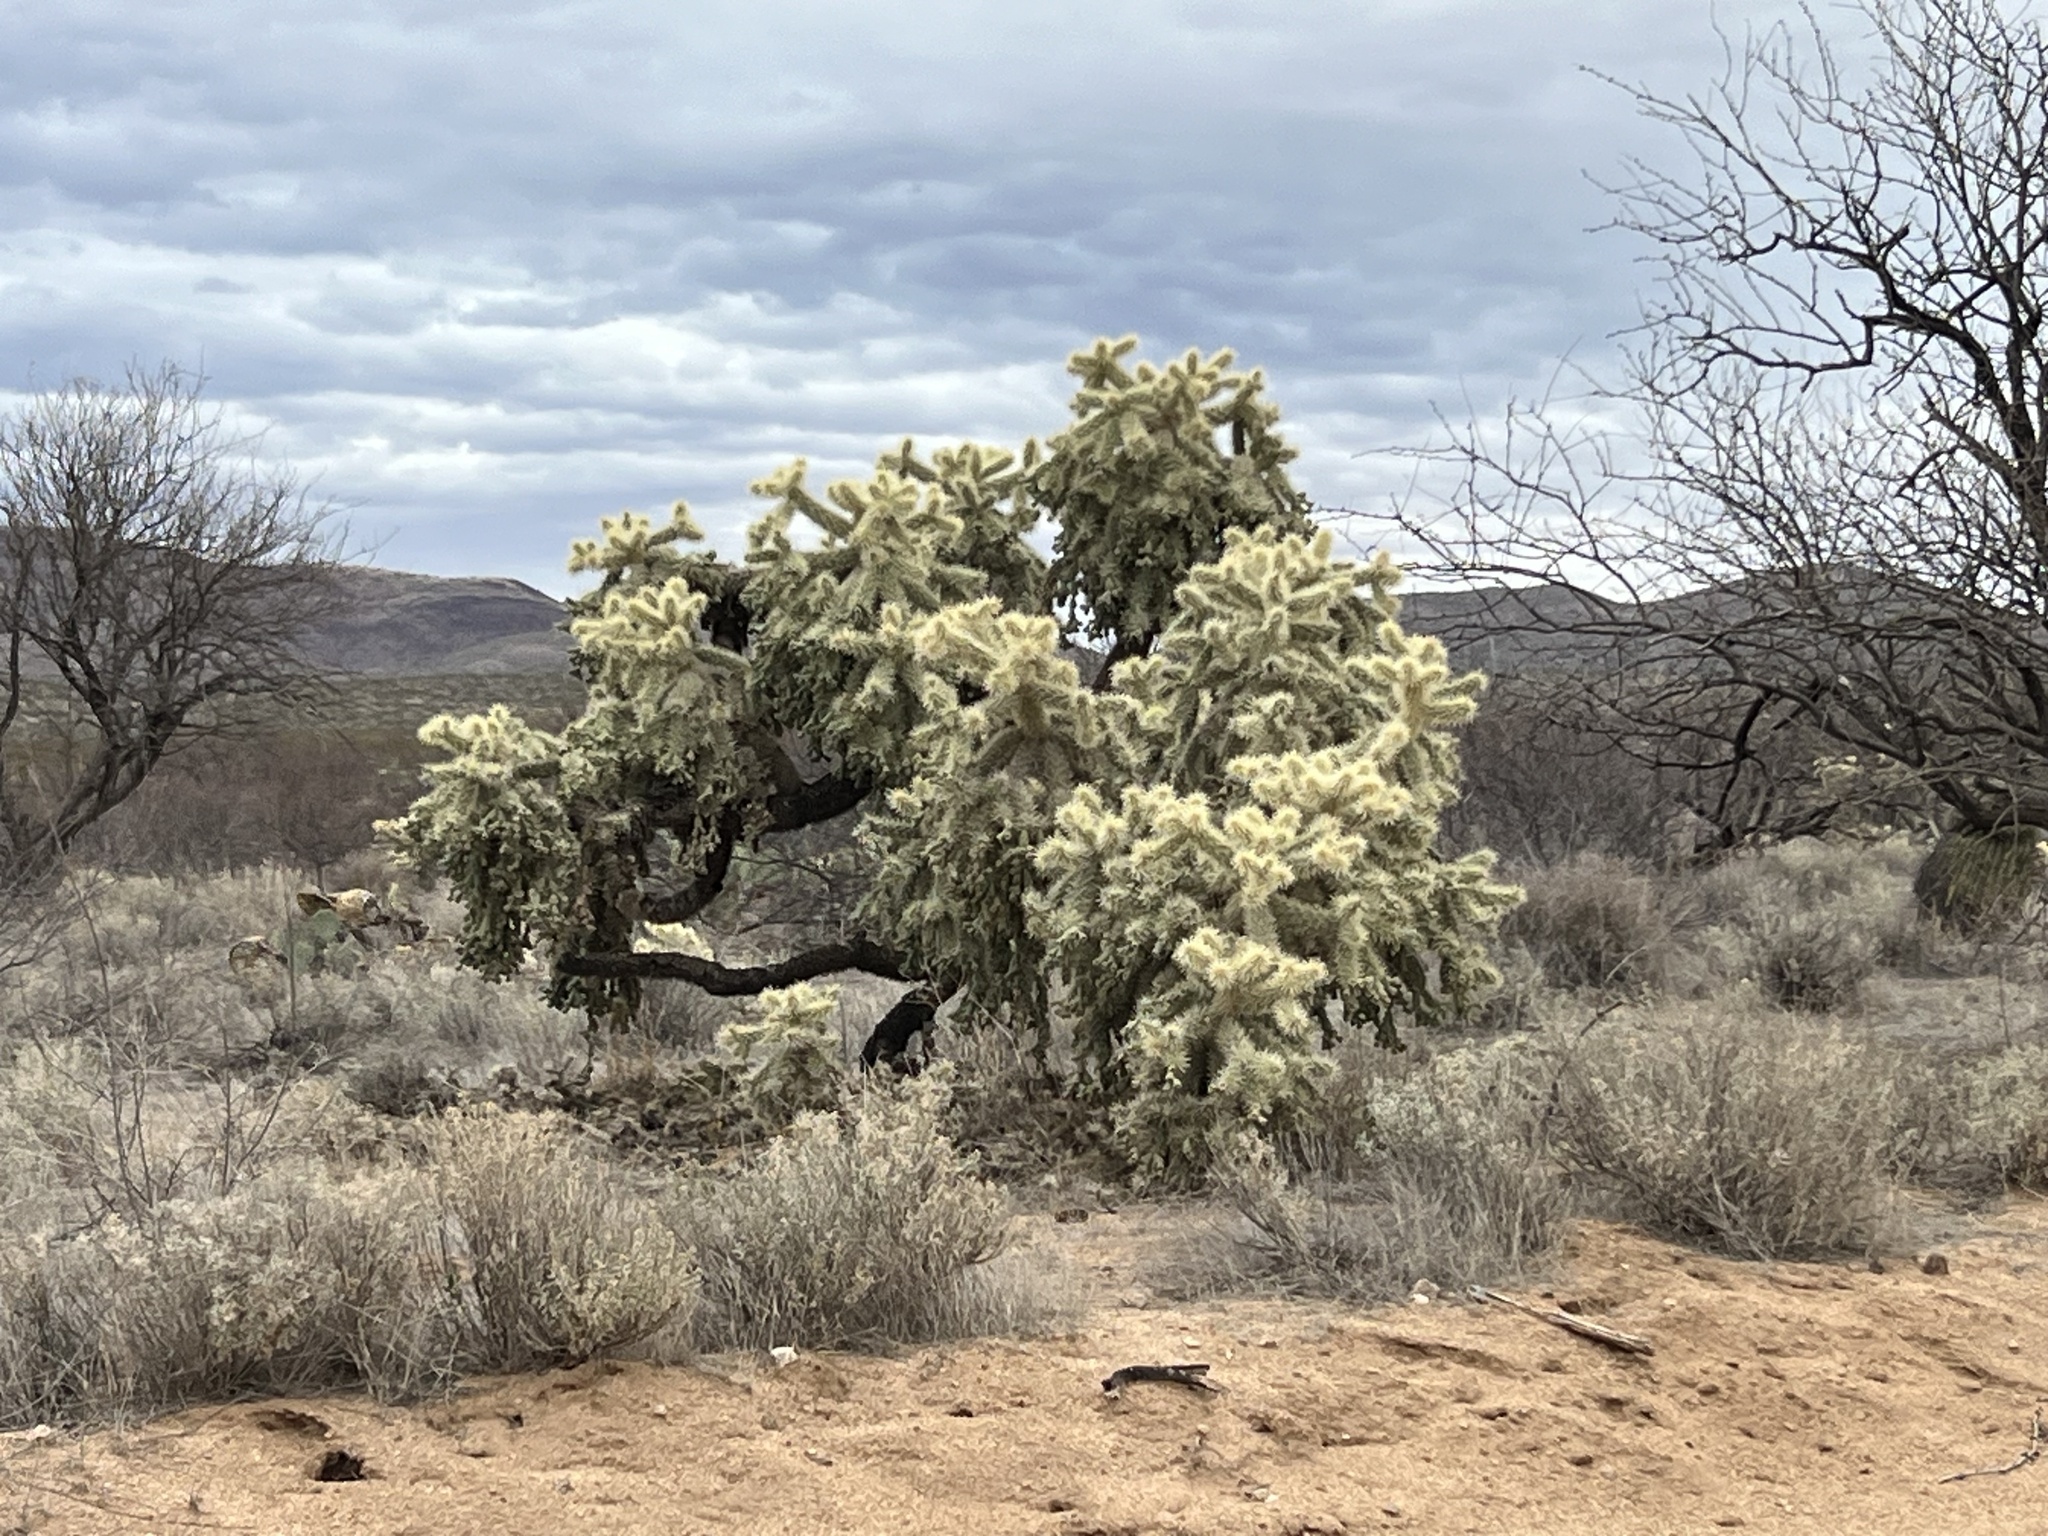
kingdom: Plantae
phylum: Tracheophyta
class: Magnoliopsida
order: Caryophyllales
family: Cactaceae
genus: Cylindropuntia
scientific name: Cylindropuntia fulgida
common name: Jumping cholla
